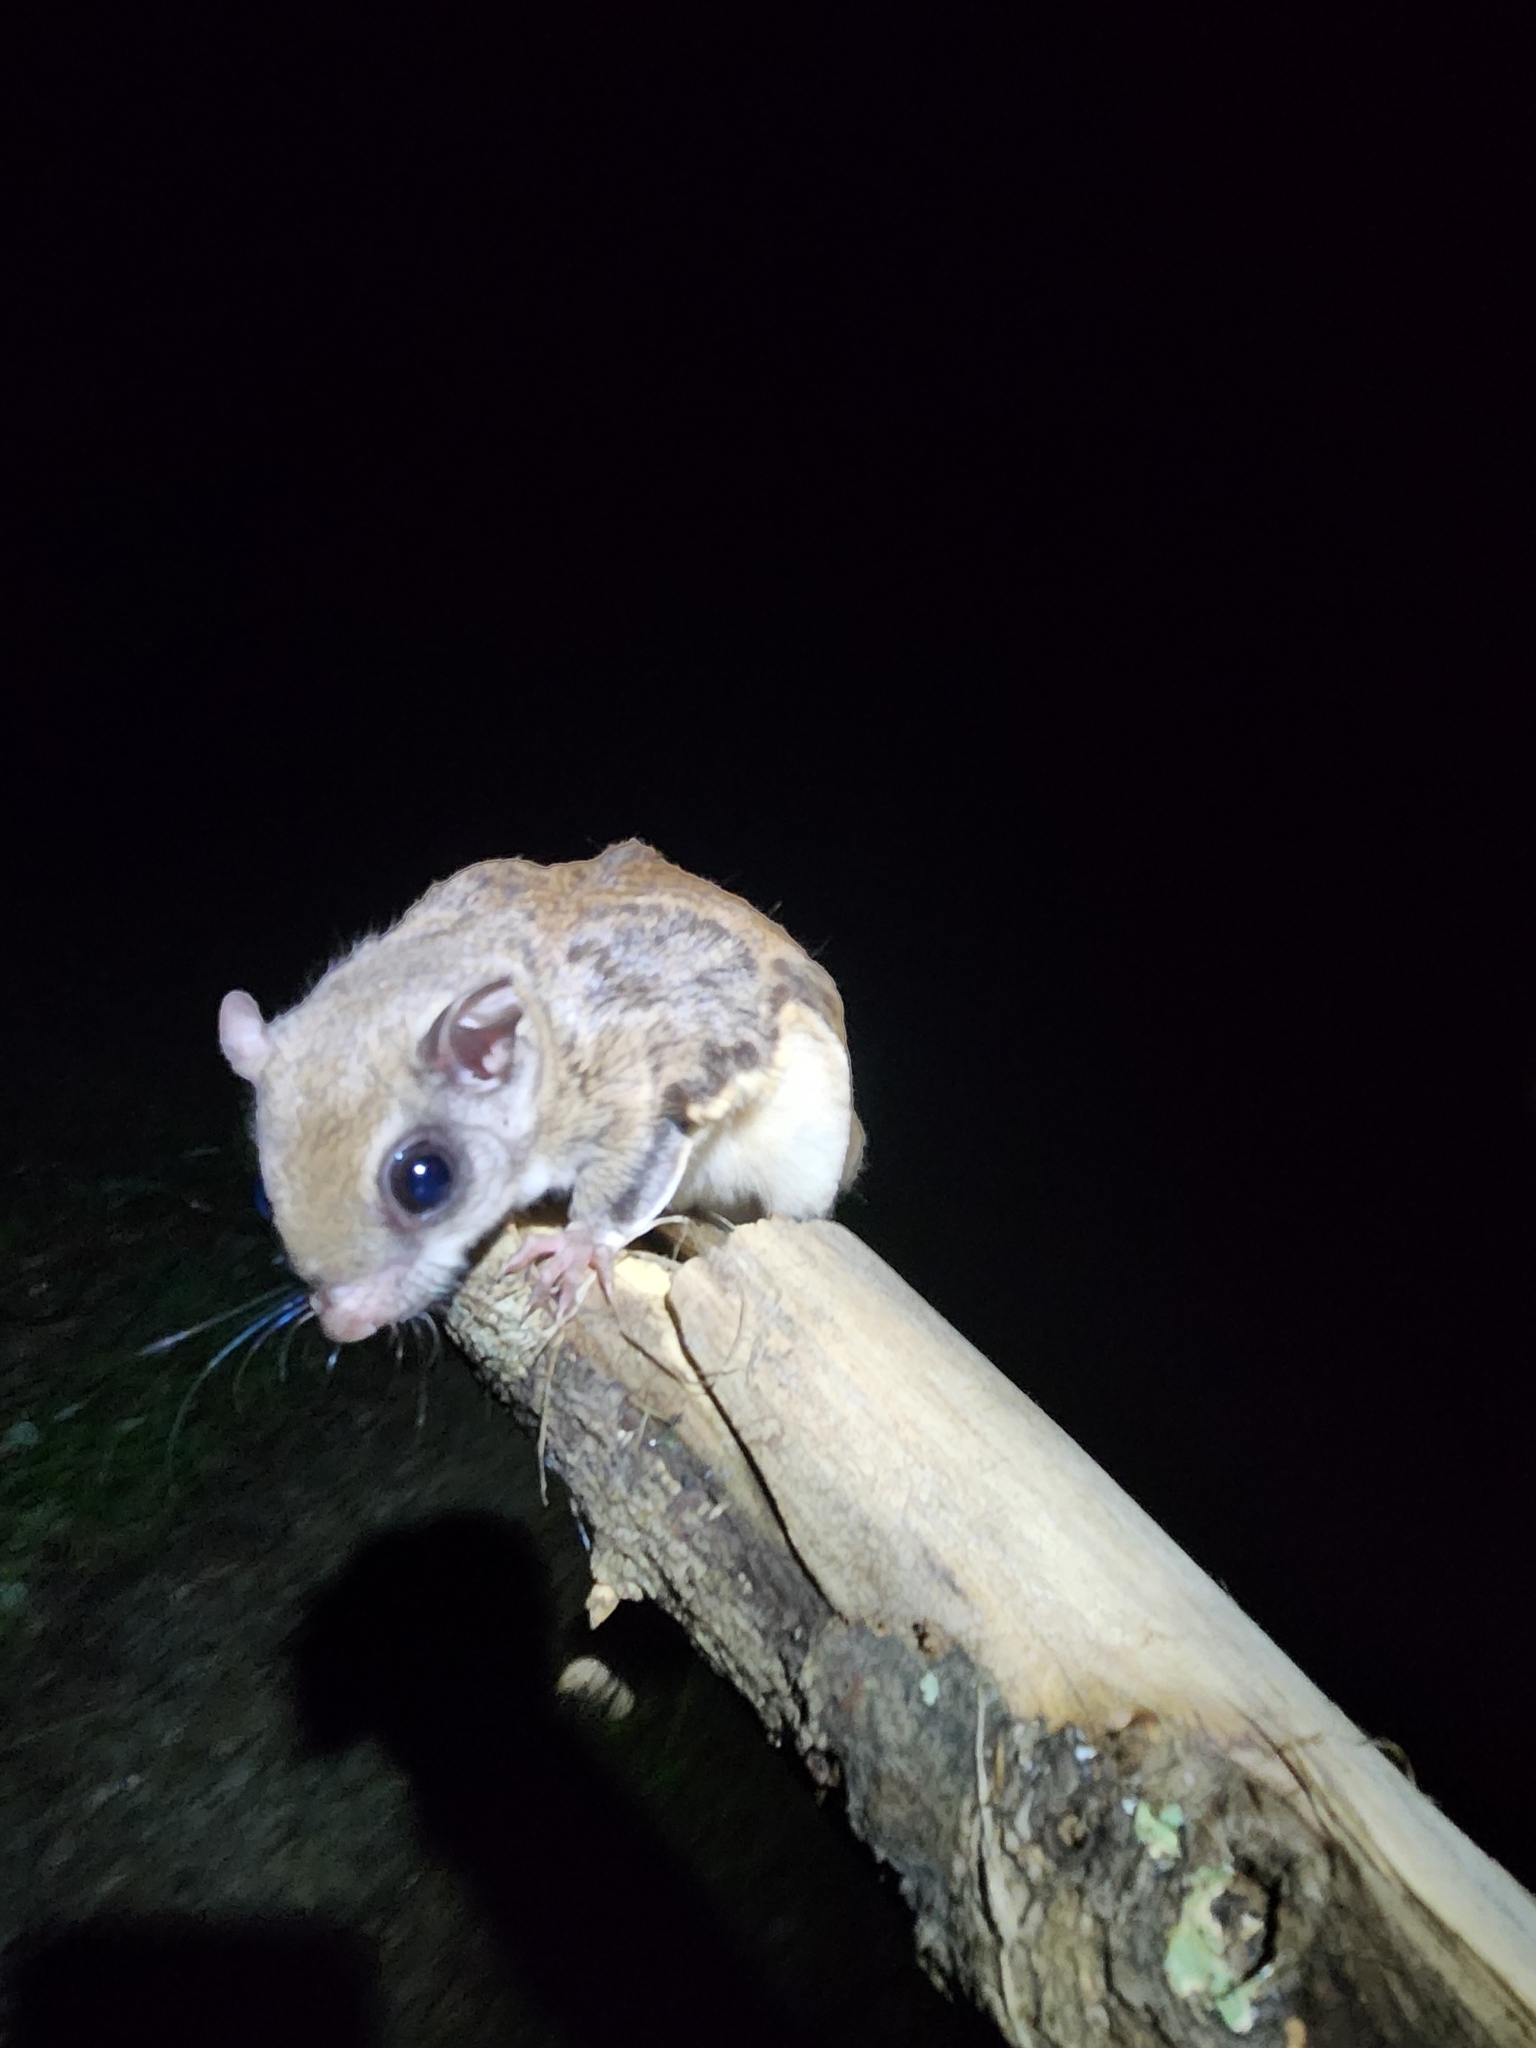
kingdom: Animalia
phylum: Chordata
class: Mammalia
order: Rodentia
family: Sciuridae
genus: Glaucomys
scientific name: Glaucomys volans
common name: Southern flying squirrel
